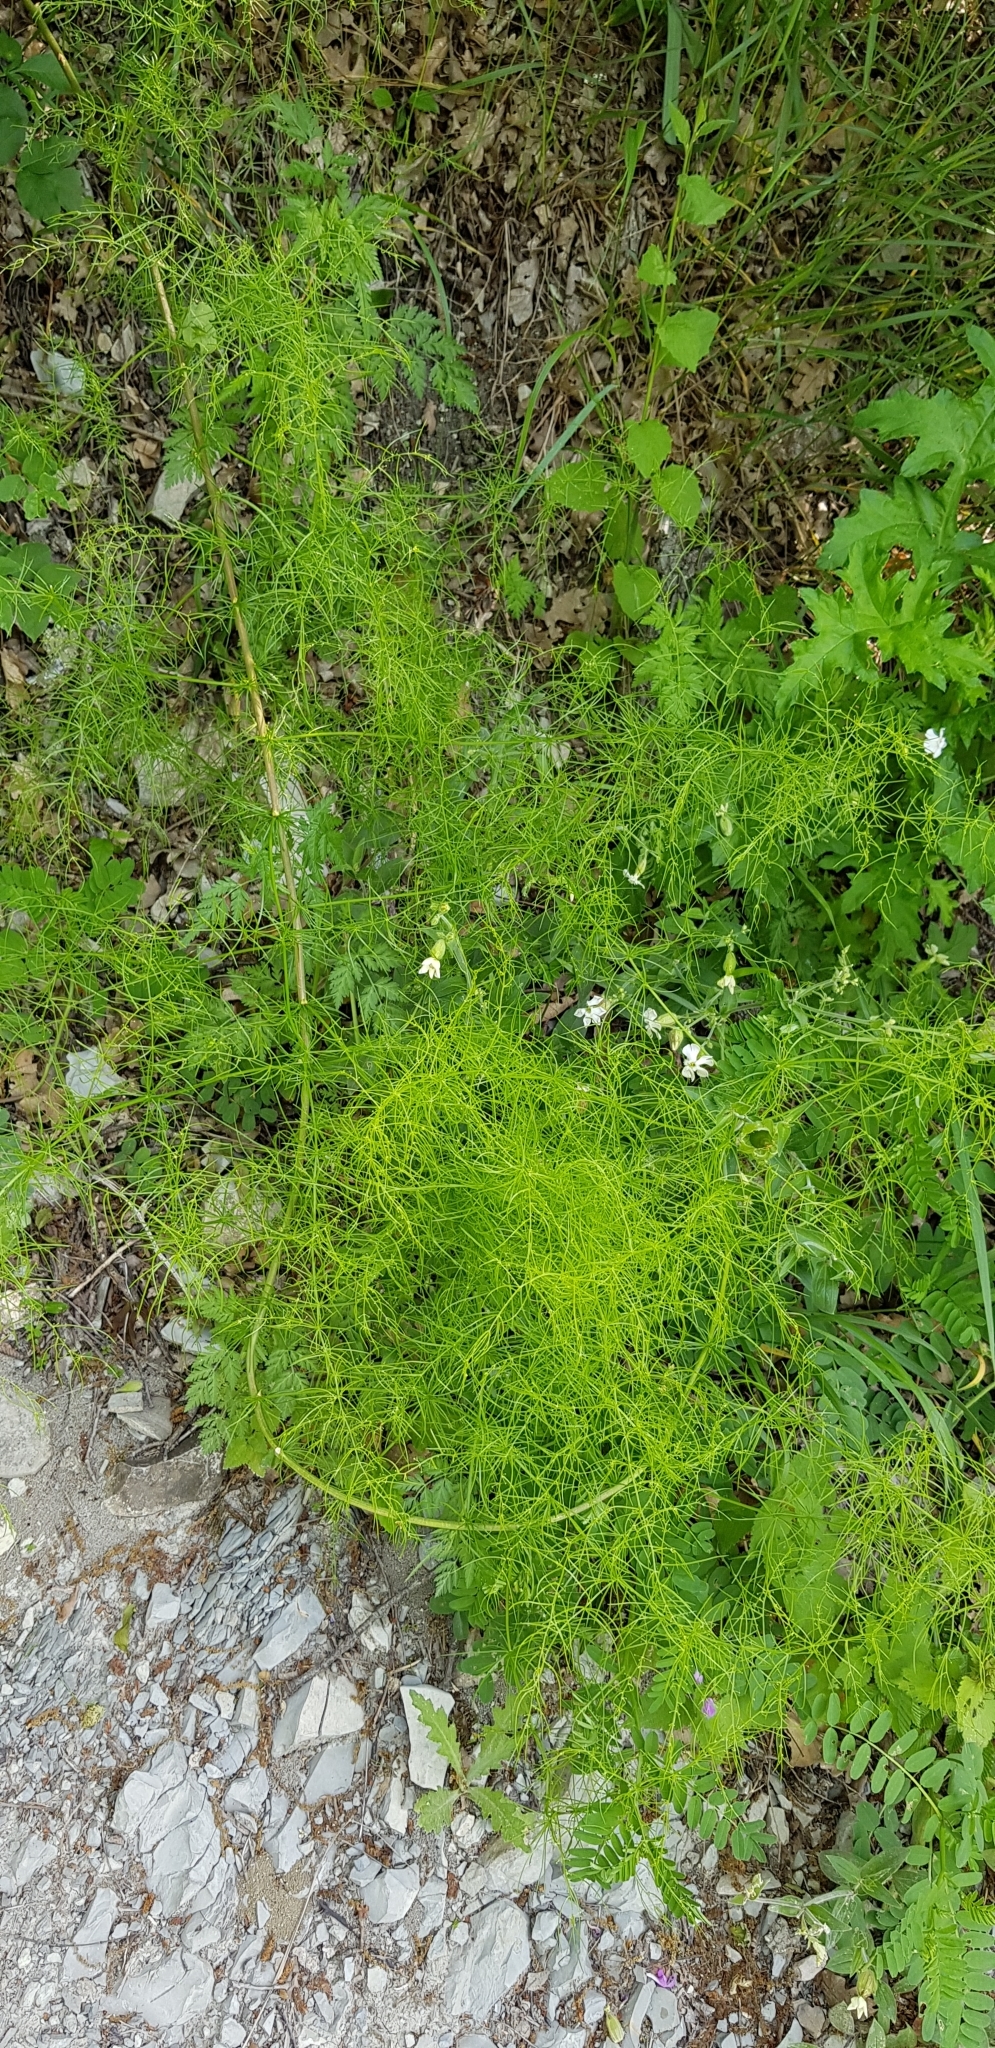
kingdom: Plantae
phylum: Tracheophyta
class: Liliopsida
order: Asparagales
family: Asparagaceae
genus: Asparagus
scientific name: Asparagus verticillatus
